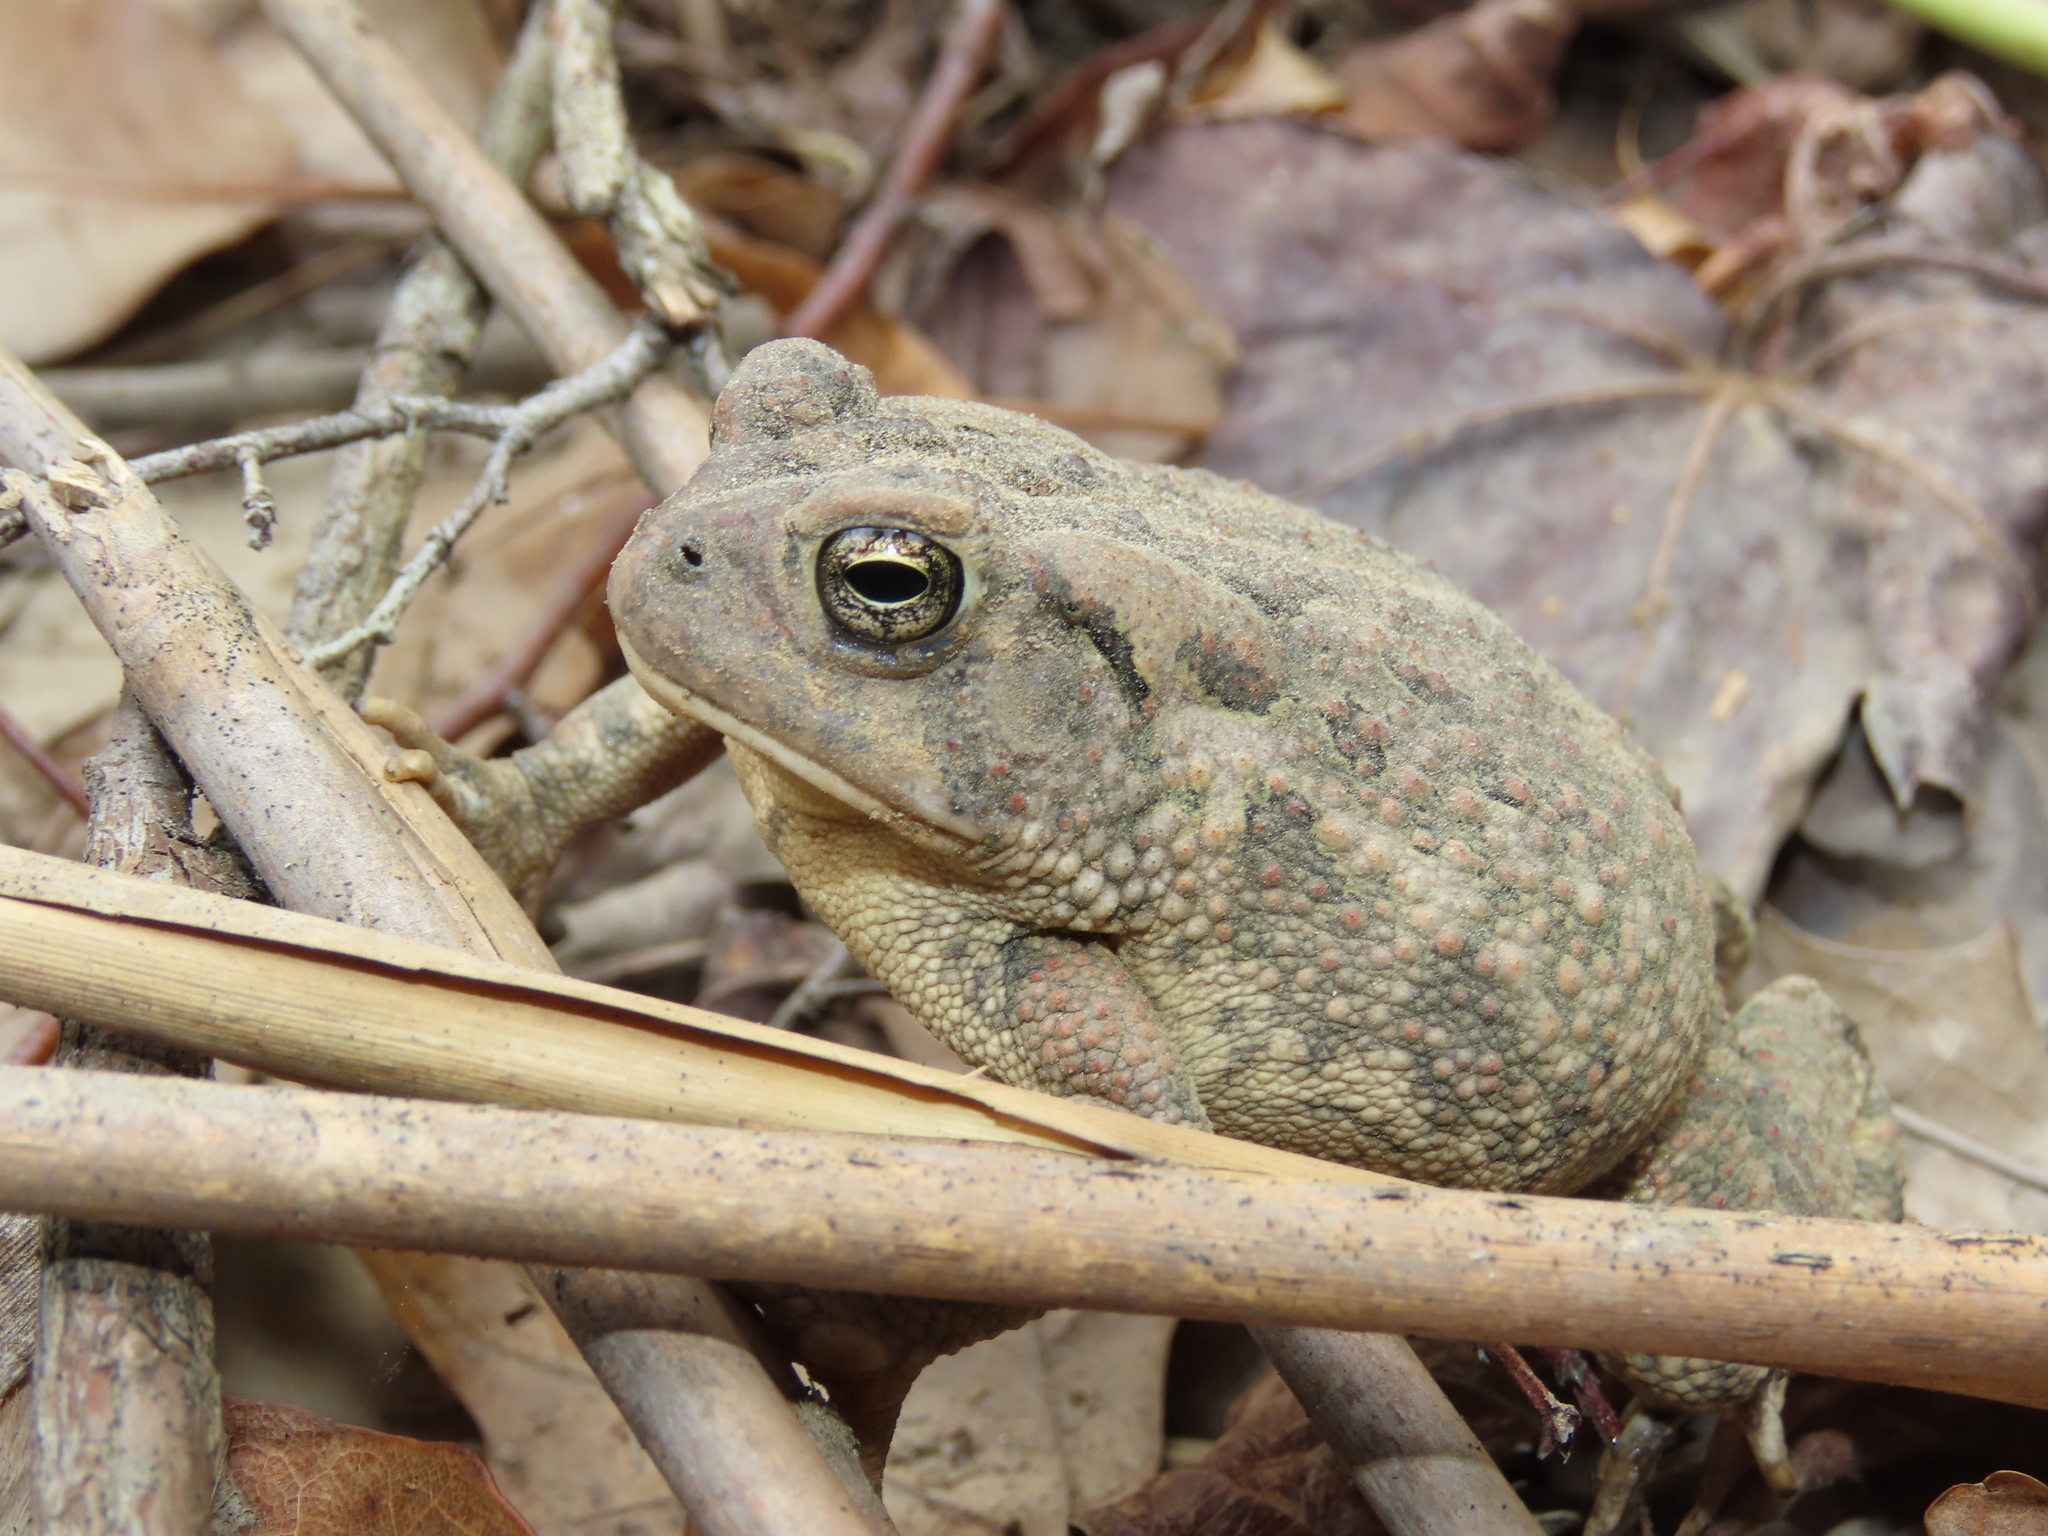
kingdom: Animalia
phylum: Chordata
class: Amphibia
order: Anura
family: Bufonidae
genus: Anaxyrus
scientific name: Anaxyrus fowleri
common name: Fowler's toad
